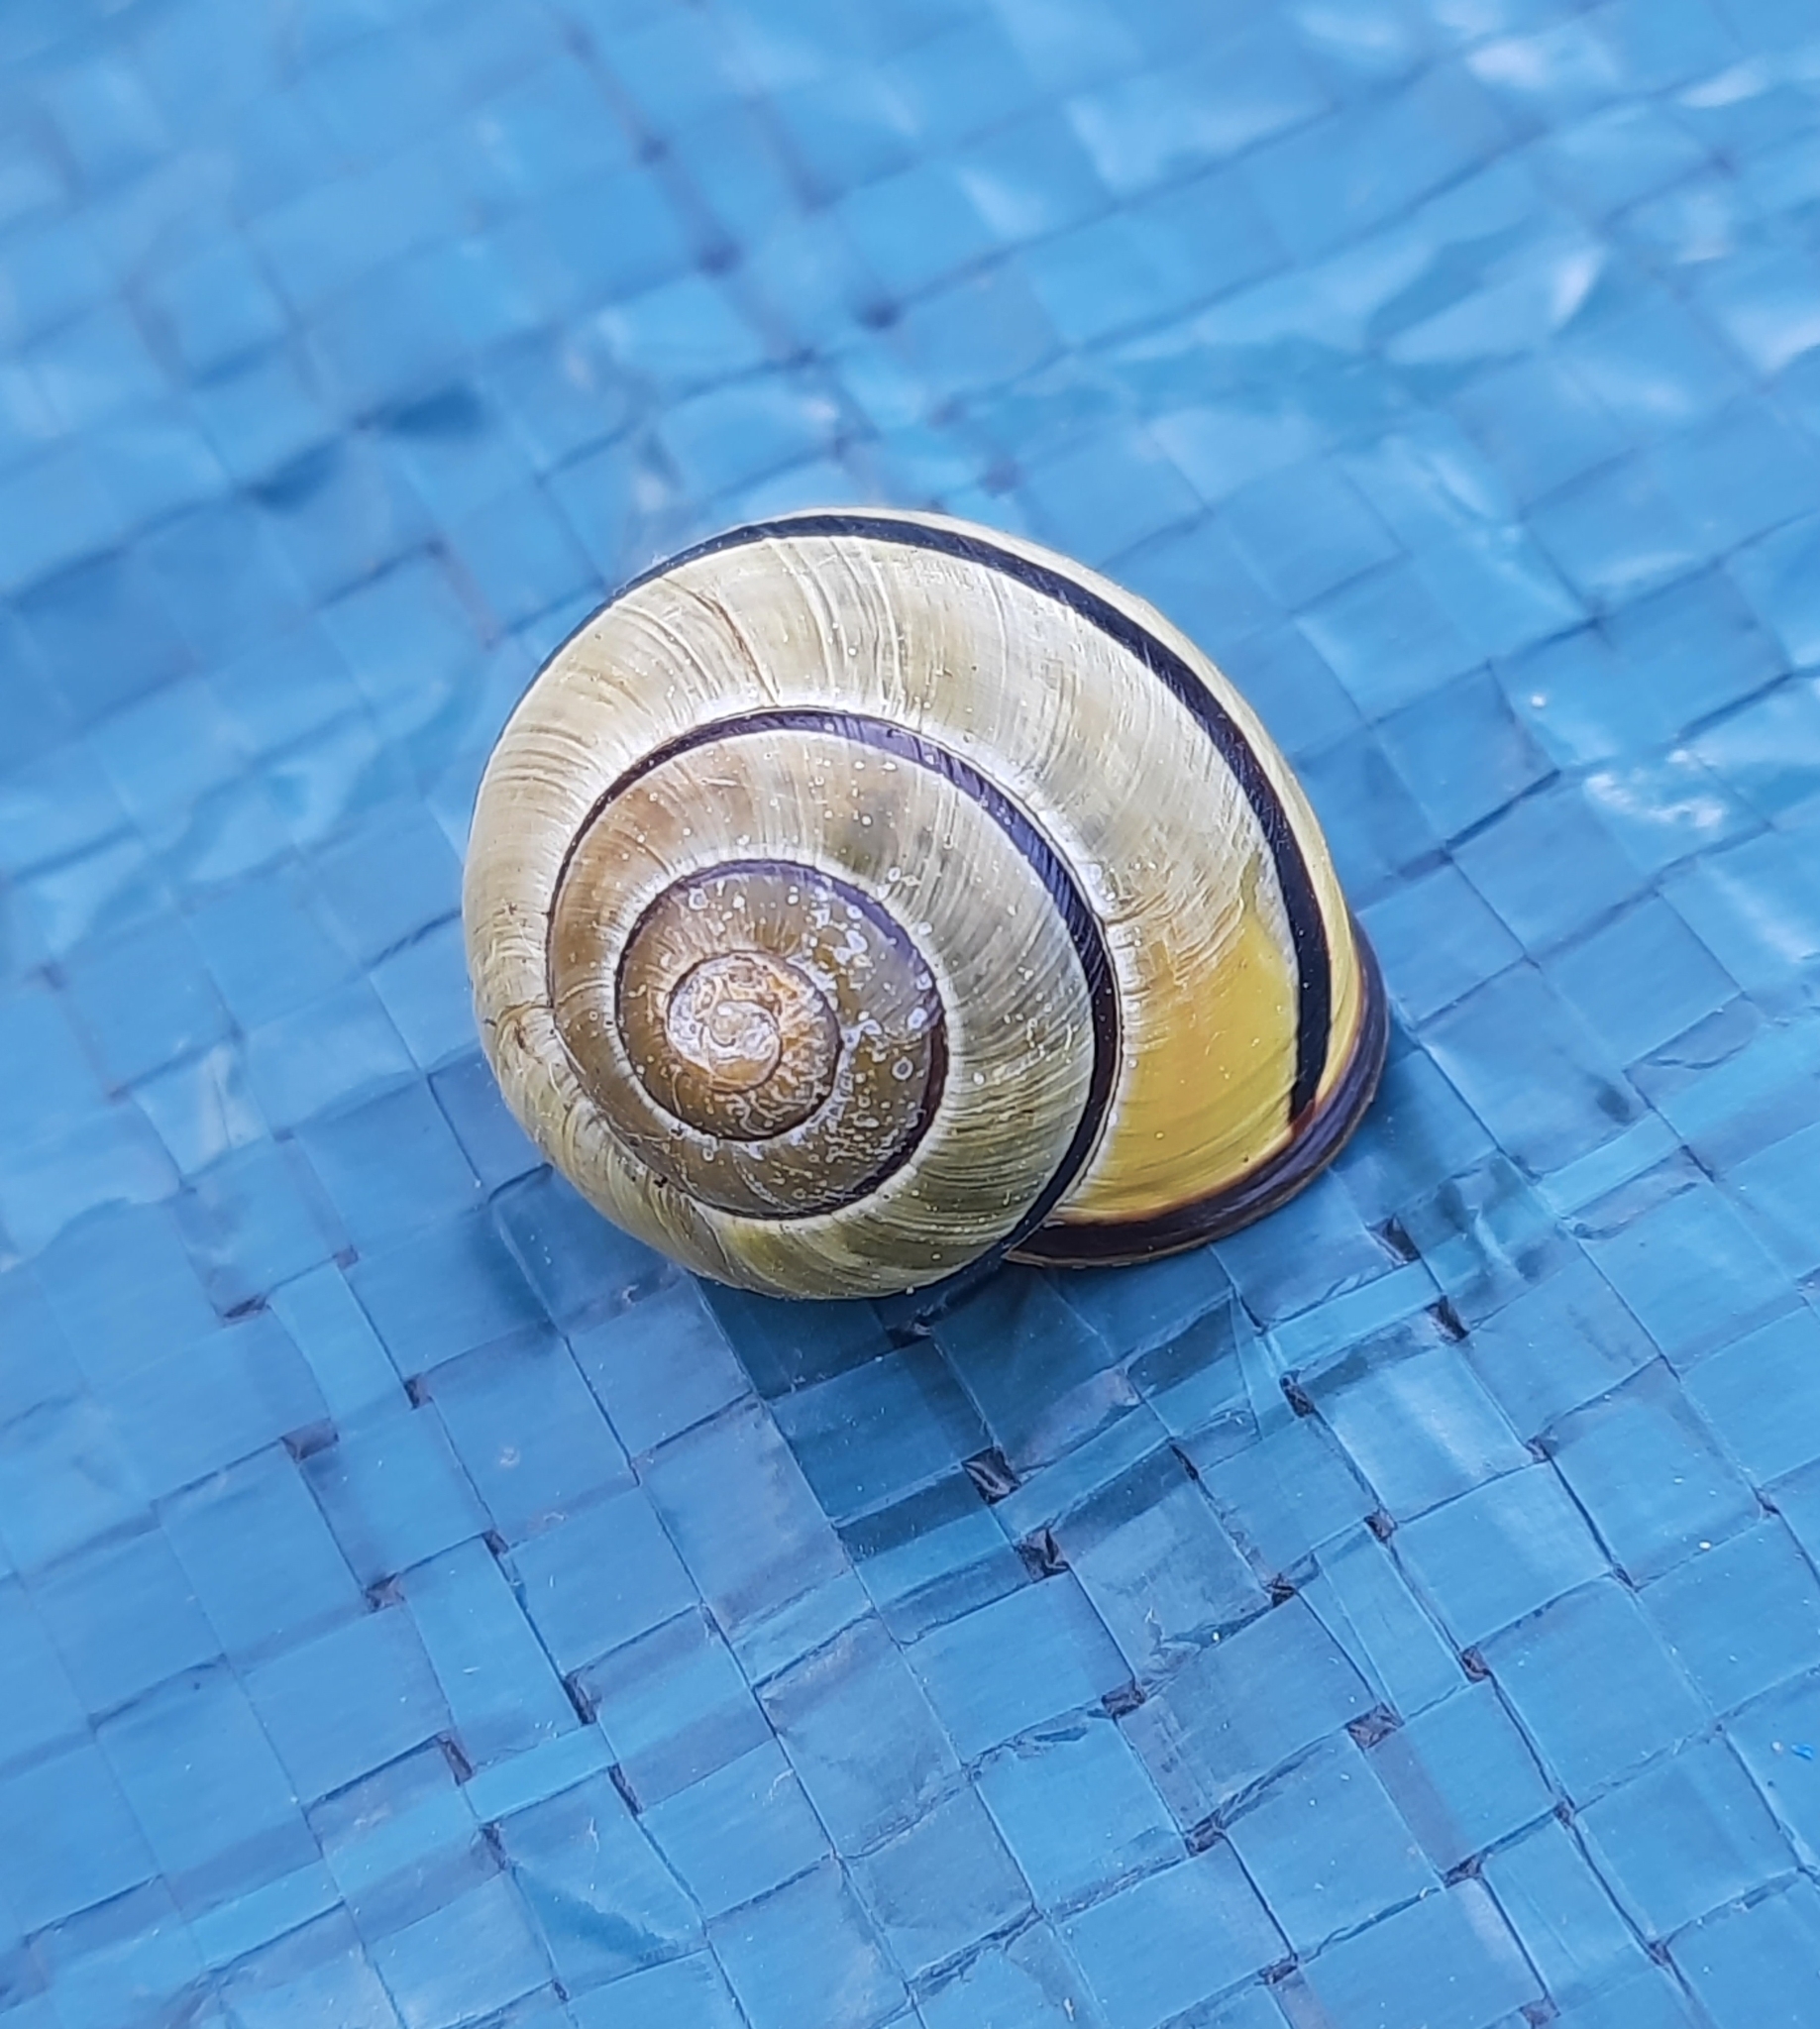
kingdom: Animalia
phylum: Mollusca
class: Gastropoda
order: Stylommatophora
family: Helicidae
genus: Cepaea
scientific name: Cepaea nemoralis
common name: Grovesnail
